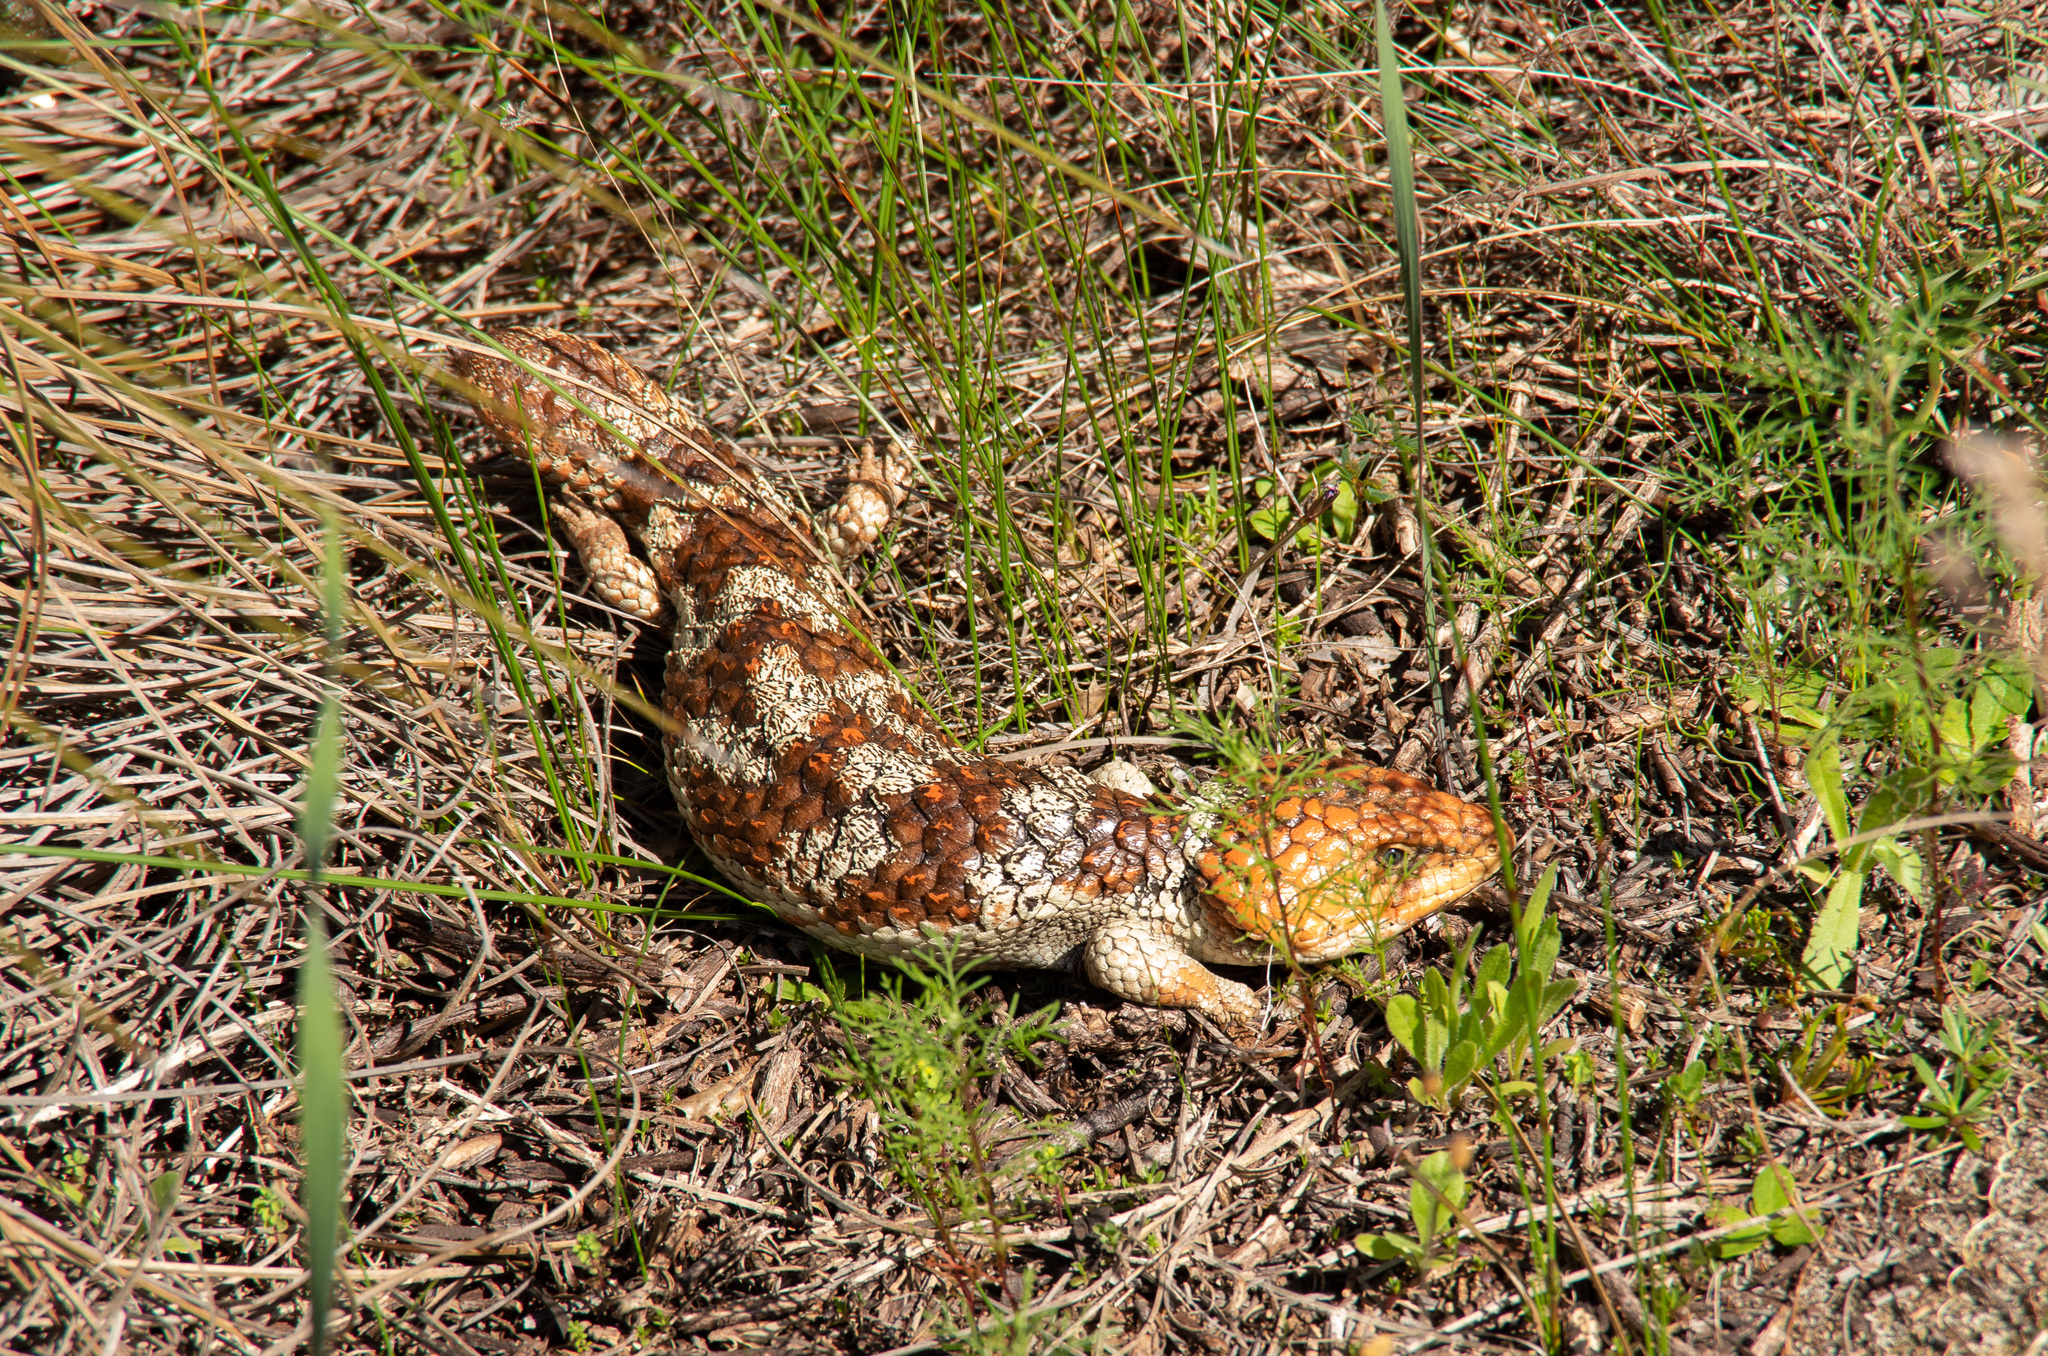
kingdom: Animalia
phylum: Chordata
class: Squamata
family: Scincidae
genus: Tiliqua
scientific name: Tiliqua rugosa
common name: Pinecone lizard
